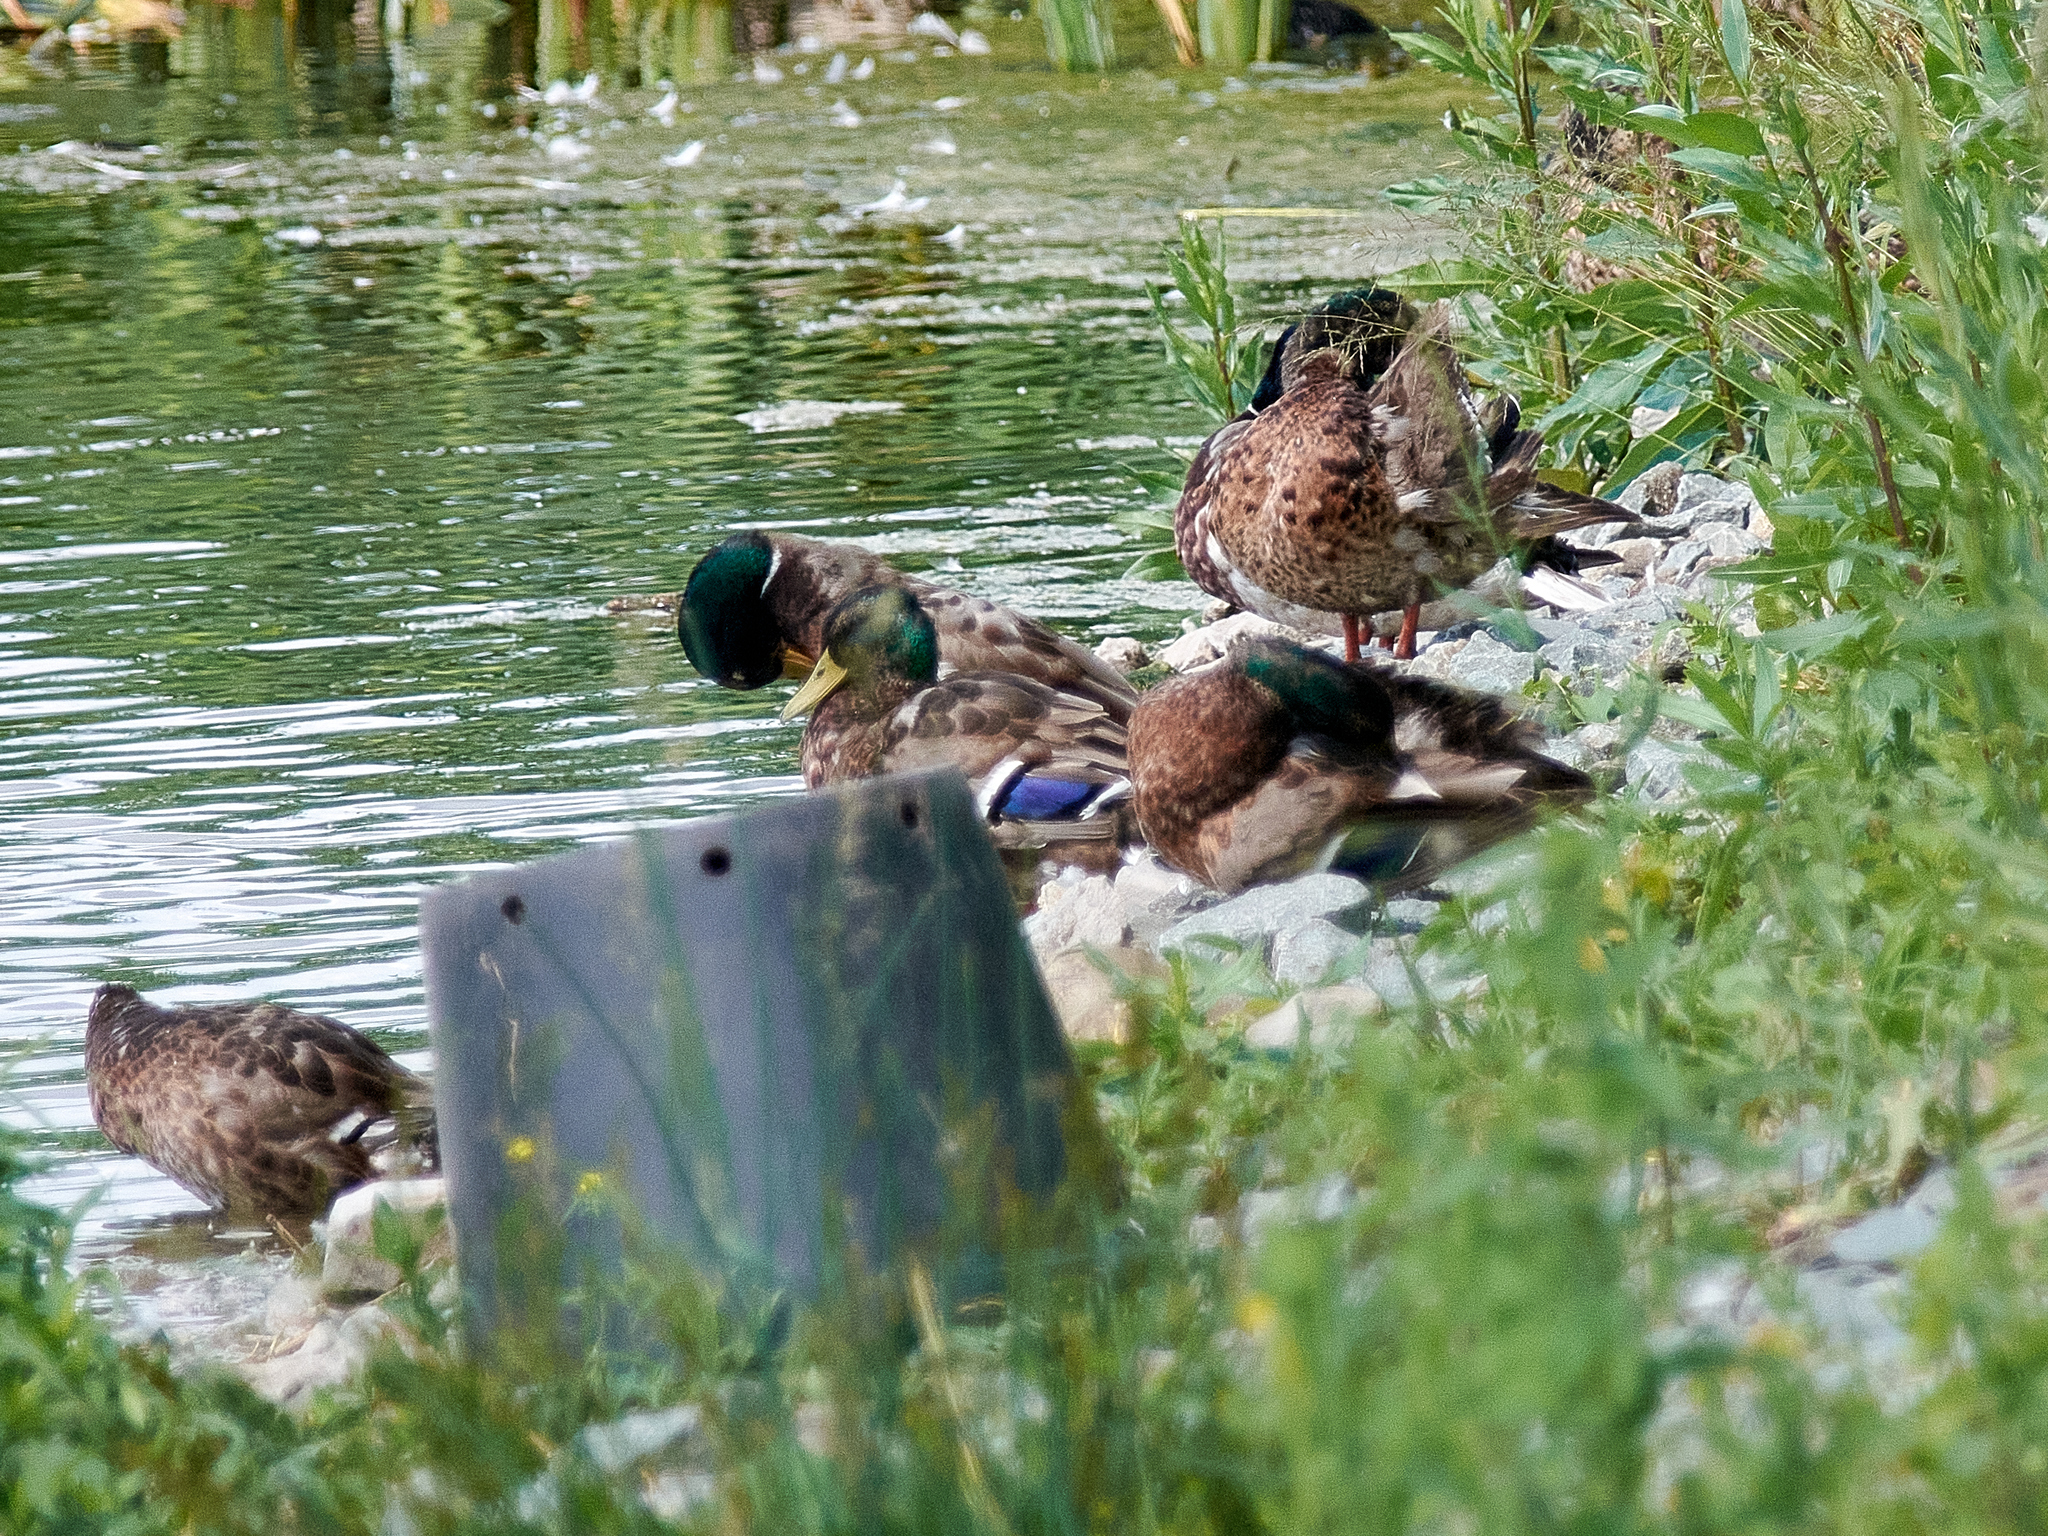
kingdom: Animalia
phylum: Chordata
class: Aves
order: Anseriformes
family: Anatidae
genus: Anas
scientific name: Anas platyrhynchos
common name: Mallard
